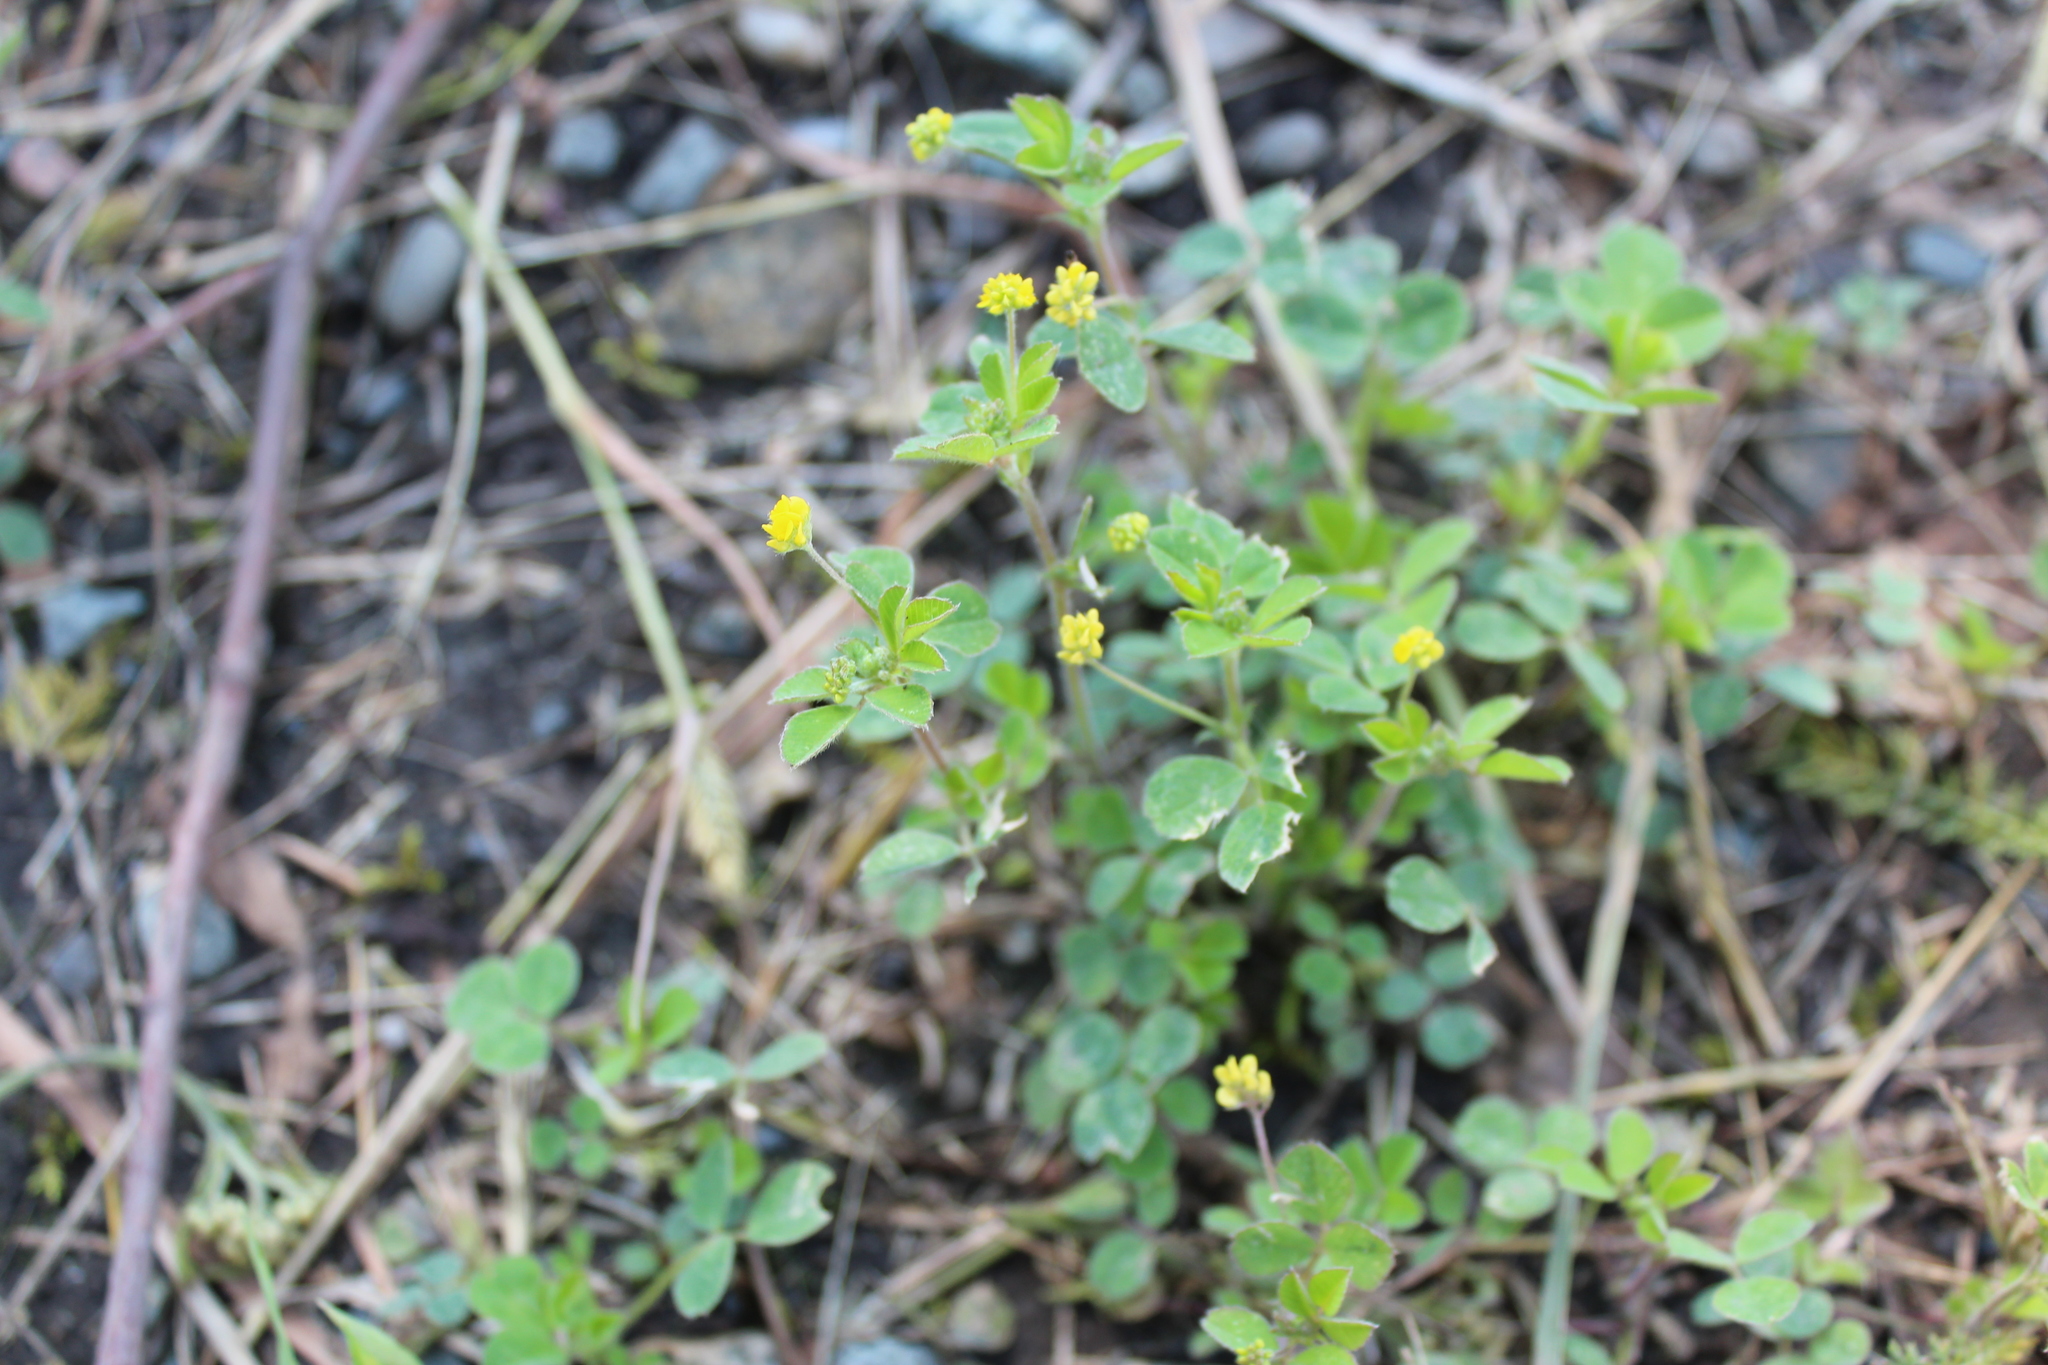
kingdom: Plantae
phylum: Tracheophyta
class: Magnoliopsida
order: Fabales
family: Fabaceae
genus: Medicago
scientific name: Medicago lupulina
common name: Black medick
